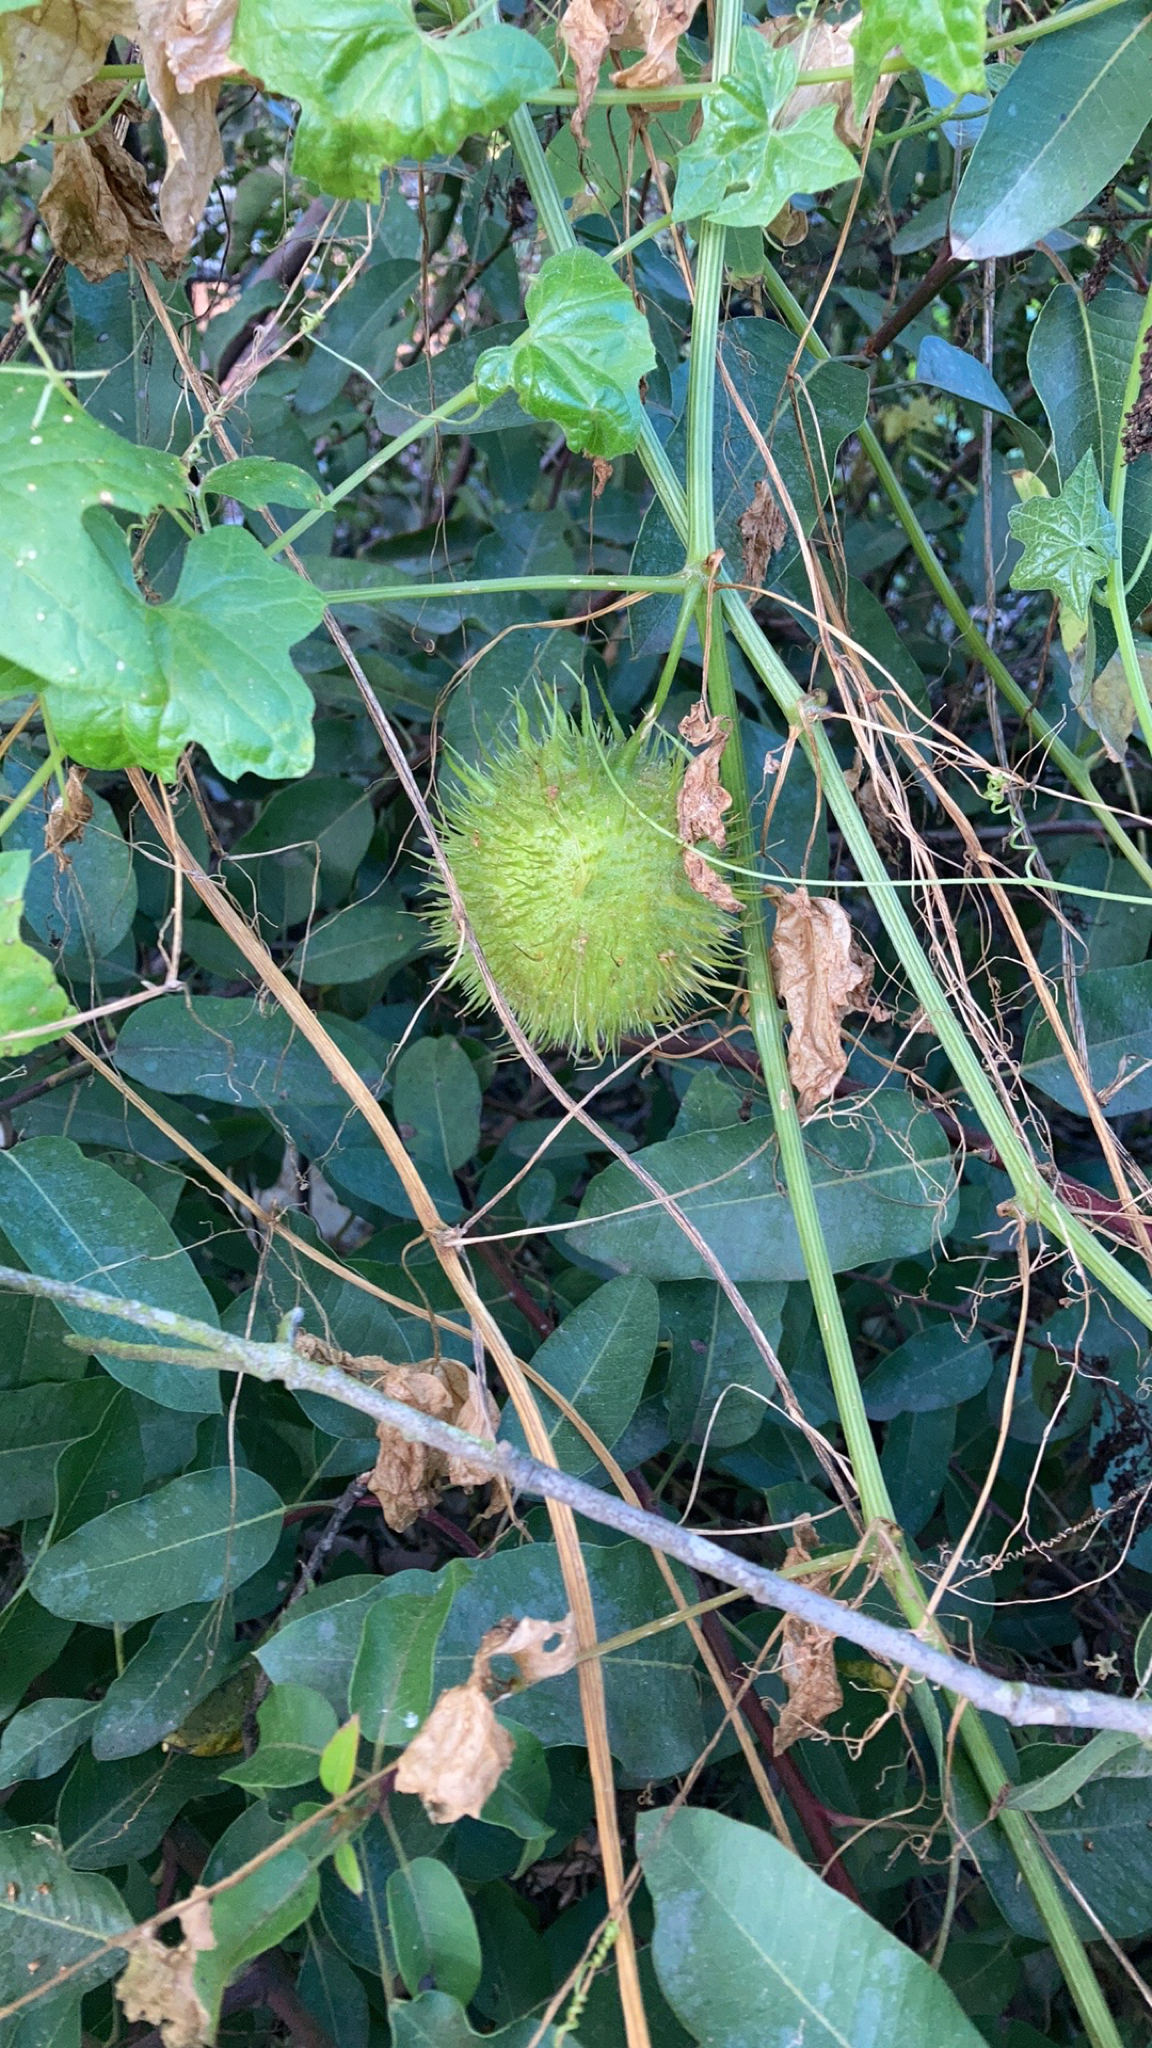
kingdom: Plantae
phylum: Tracheophyta
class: Magnoliopsida
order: Cucurbitales
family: Cucurbitaceae
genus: Marah
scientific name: Marah macrocarpa
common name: Cucamonga manroot
